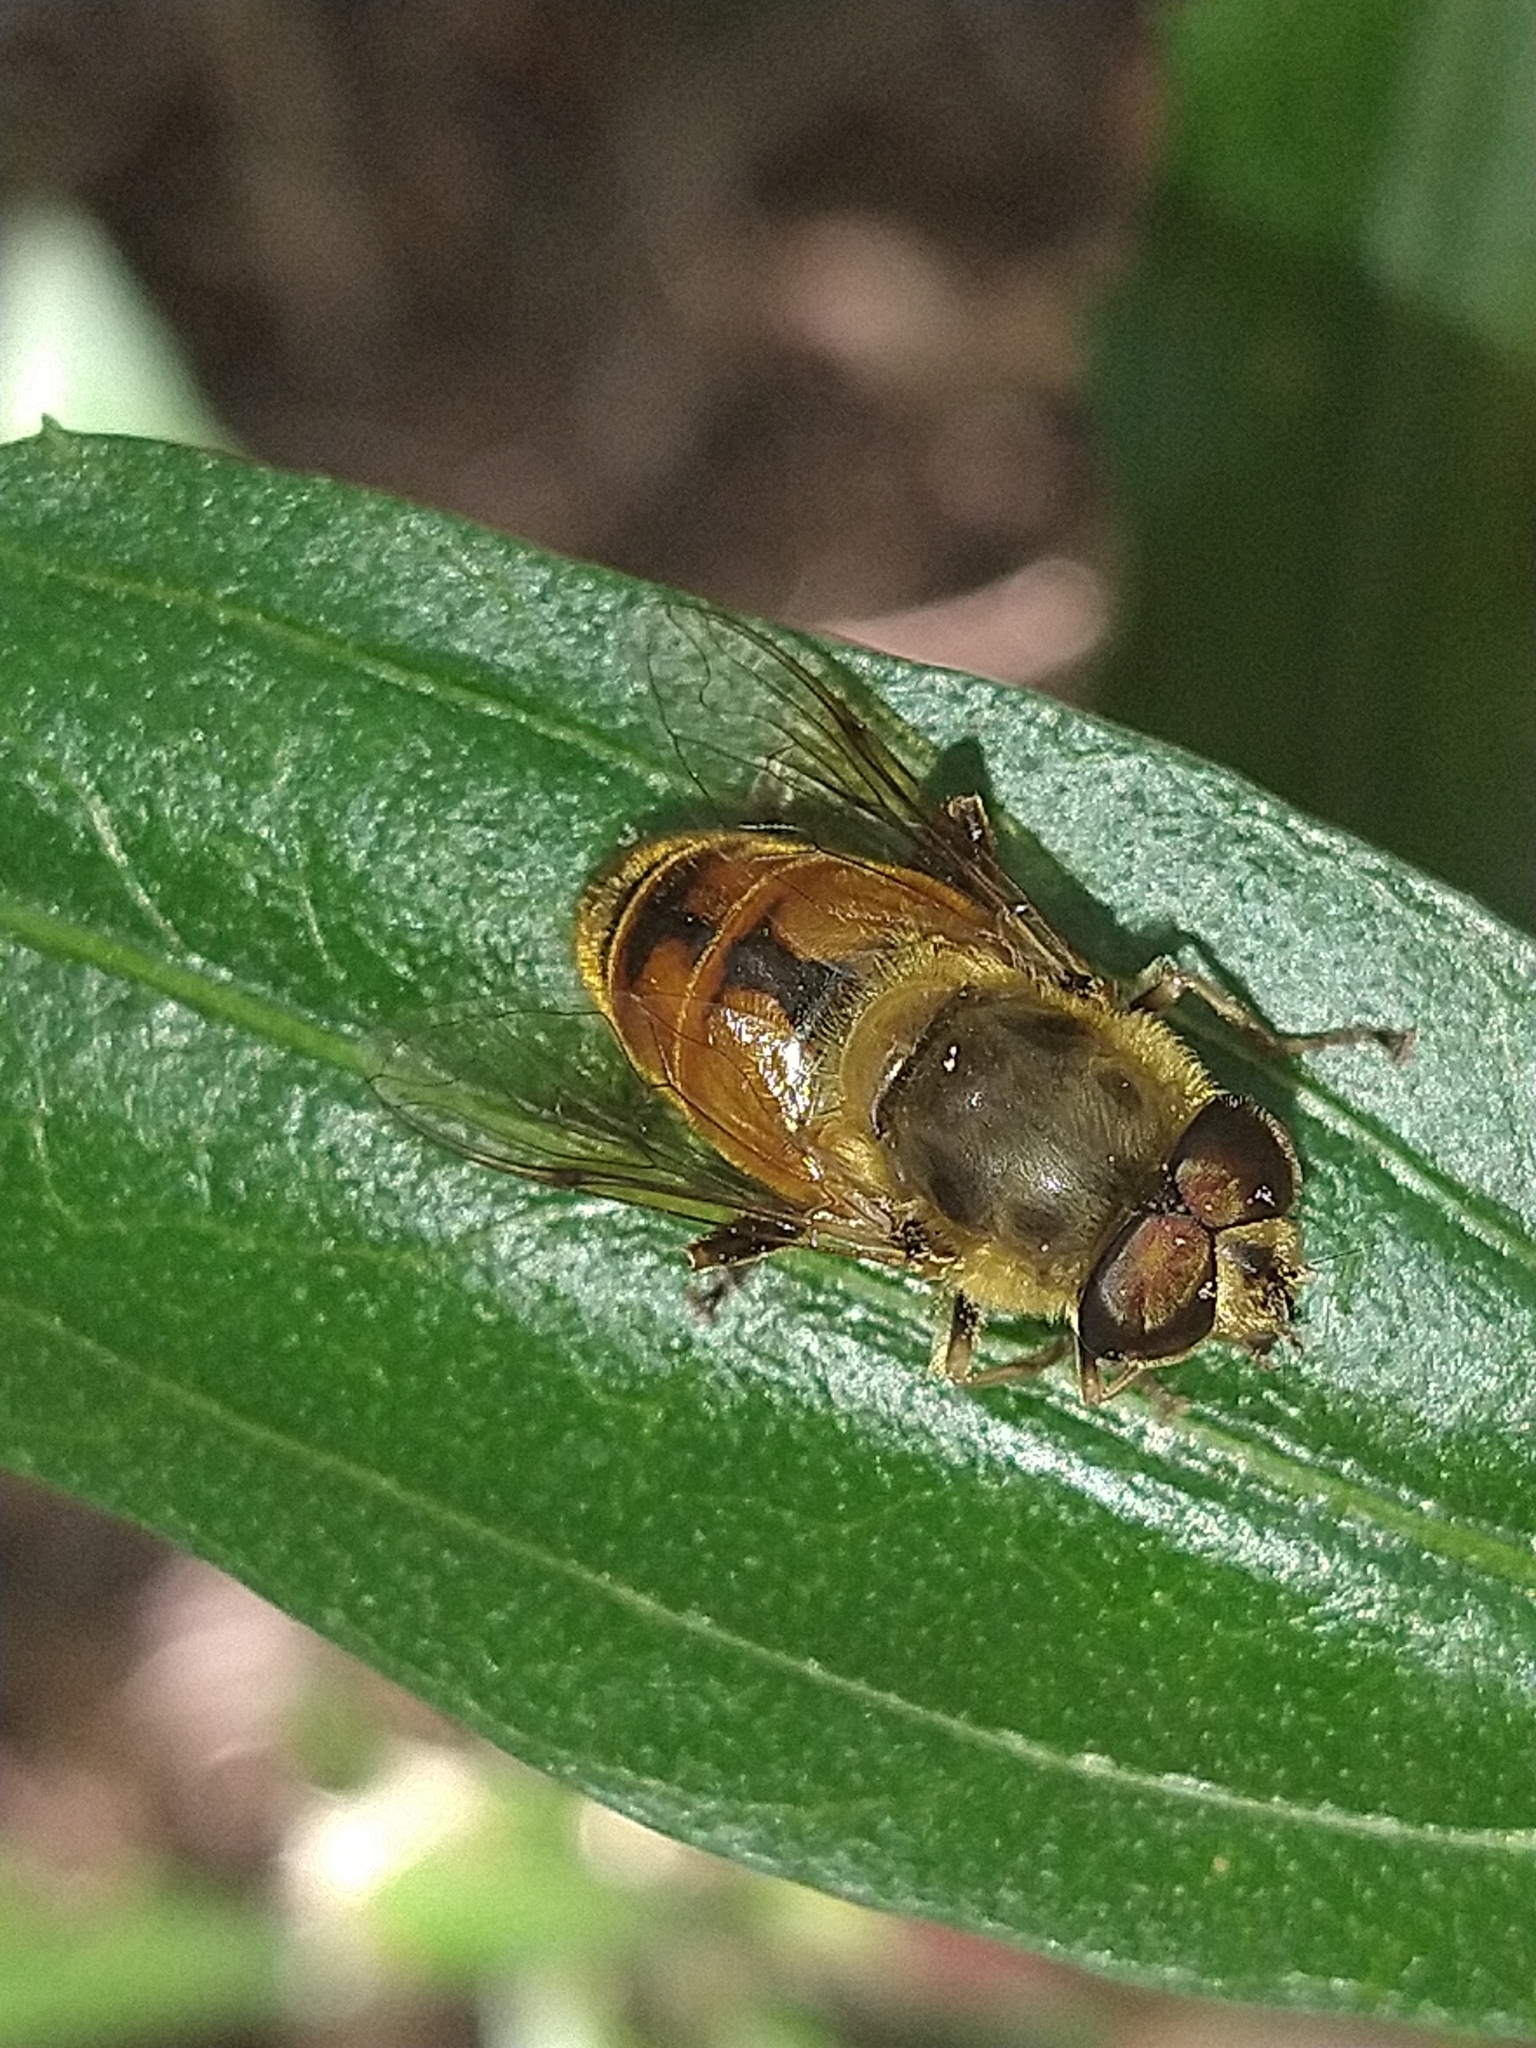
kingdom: Animalia
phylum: Arthropoda
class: Insecta
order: Diptera
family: Syrphidae
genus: Eristalis
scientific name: Eristalis tenax
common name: Drone fly
